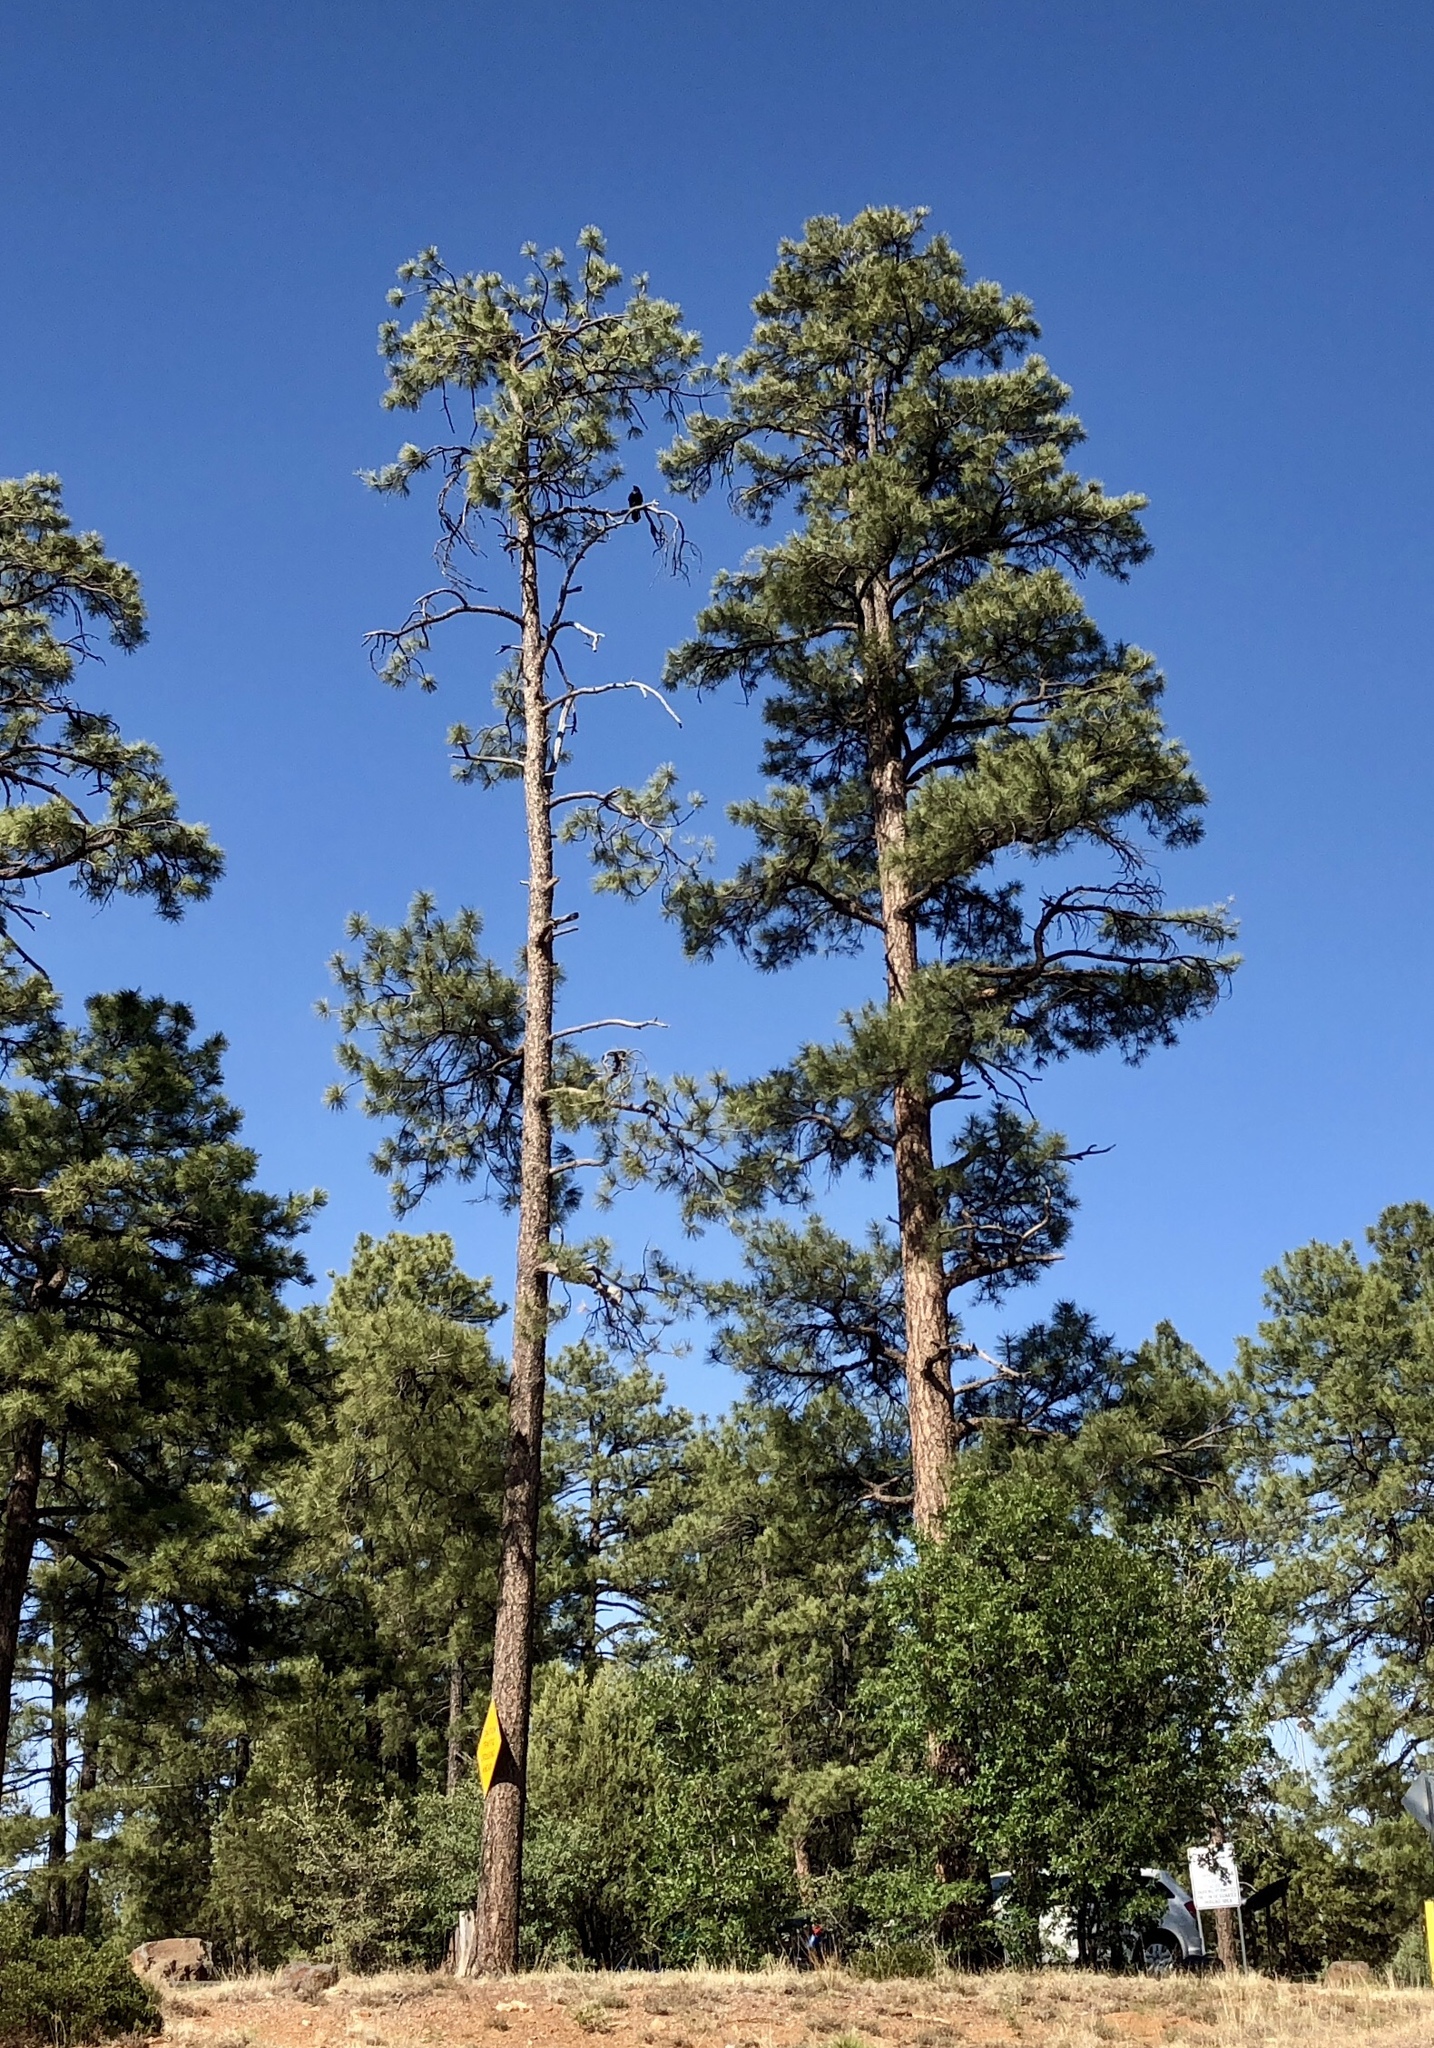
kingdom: Plantae
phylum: Tracheophyta
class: Pinopsida
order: Pinales
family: Pinaceae
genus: Pinus
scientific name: Pinus ponderosa
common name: Western yellow-pine
